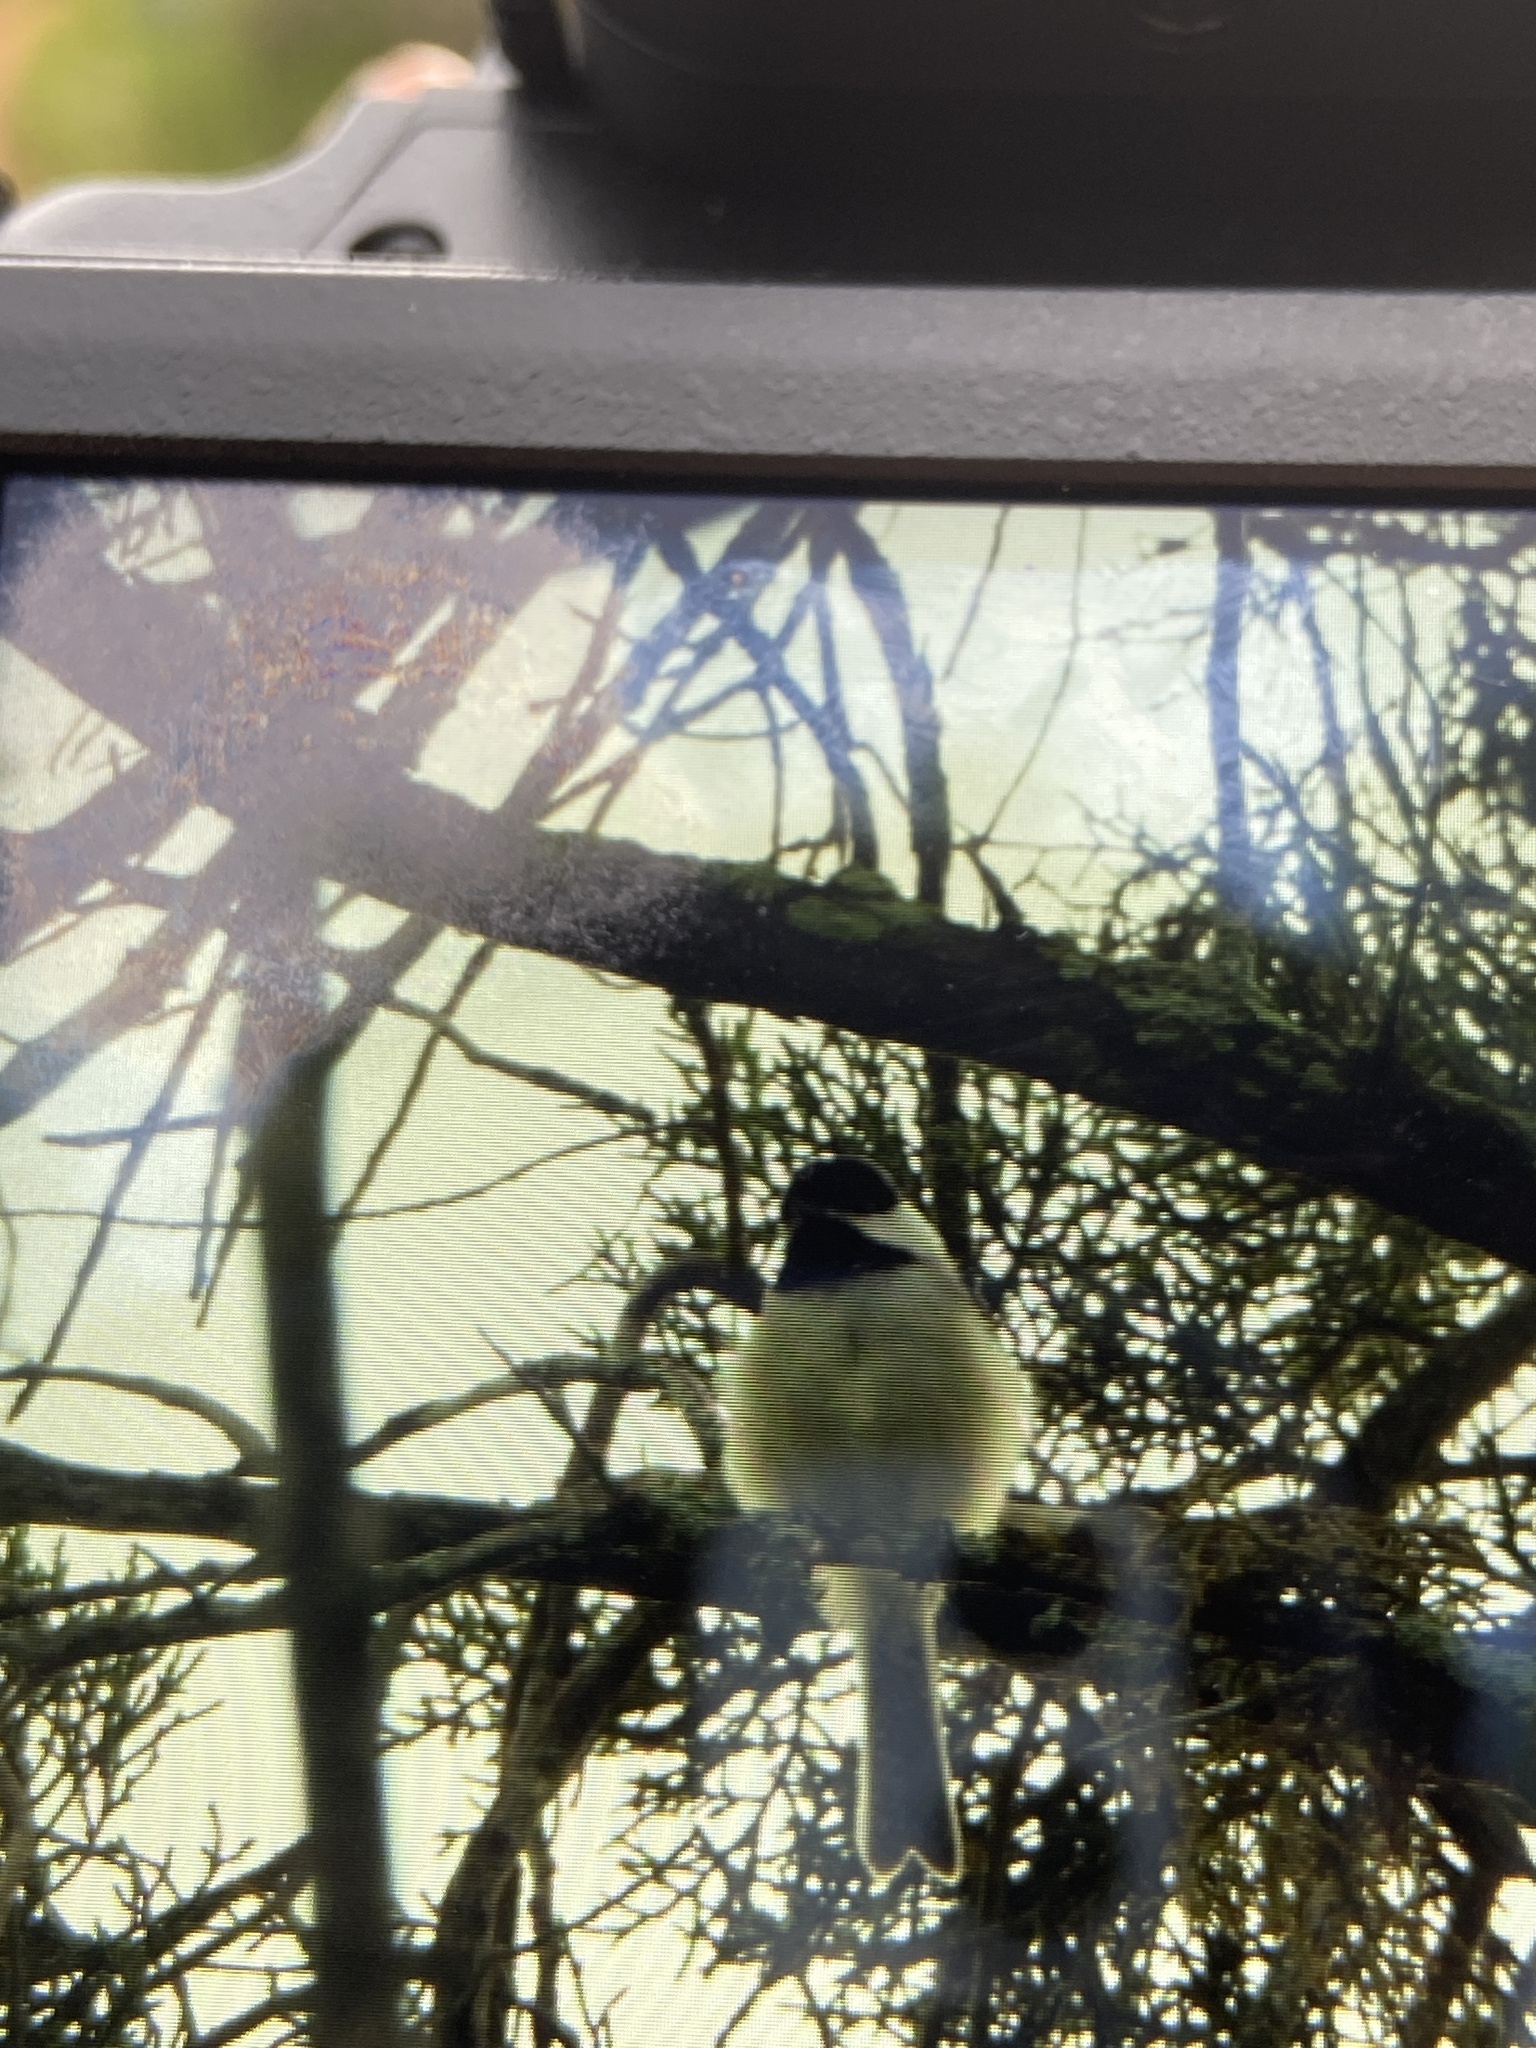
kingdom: Animalia
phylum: Chordata
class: Aves
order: Passeriformes
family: Paridae
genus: Poecile
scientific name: Poecile carolinensis
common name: Carolina chickadee
